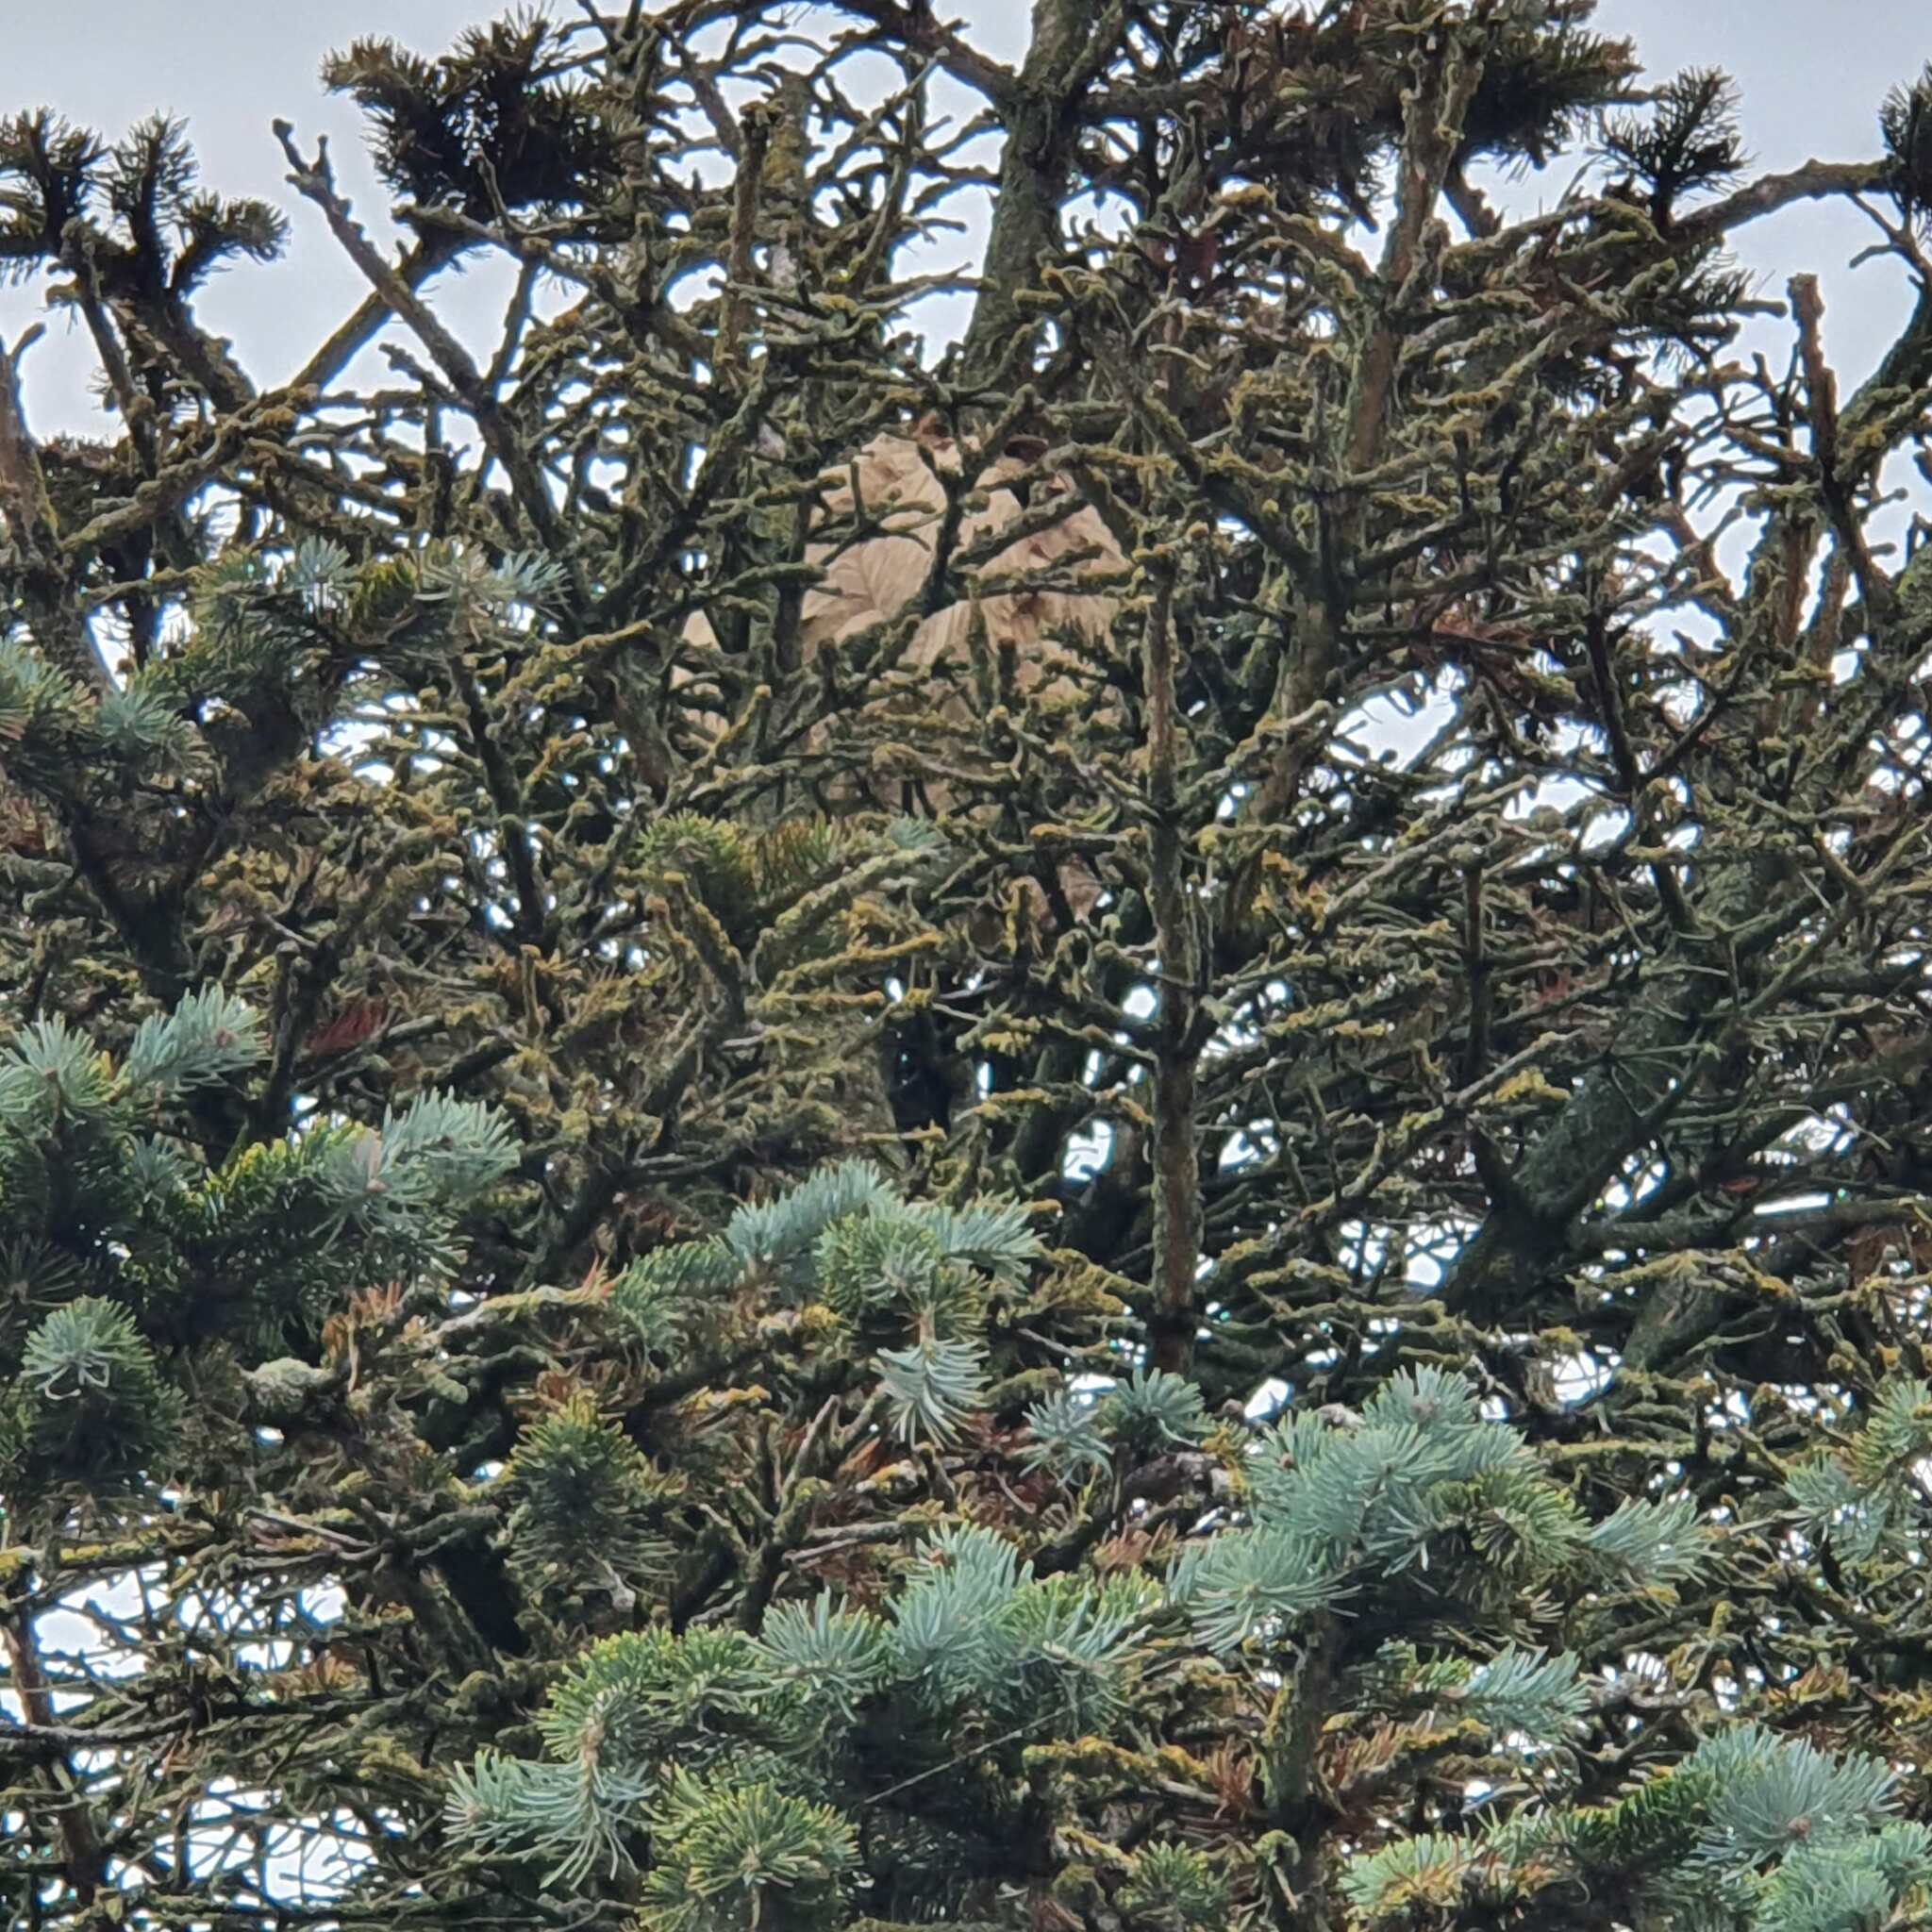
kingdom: Animalia
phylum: Arthropoda
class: Insecta
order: Hymenoptera
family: Vespidae
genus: Vespa
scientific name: Vespa velutina
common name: Asian hornet
